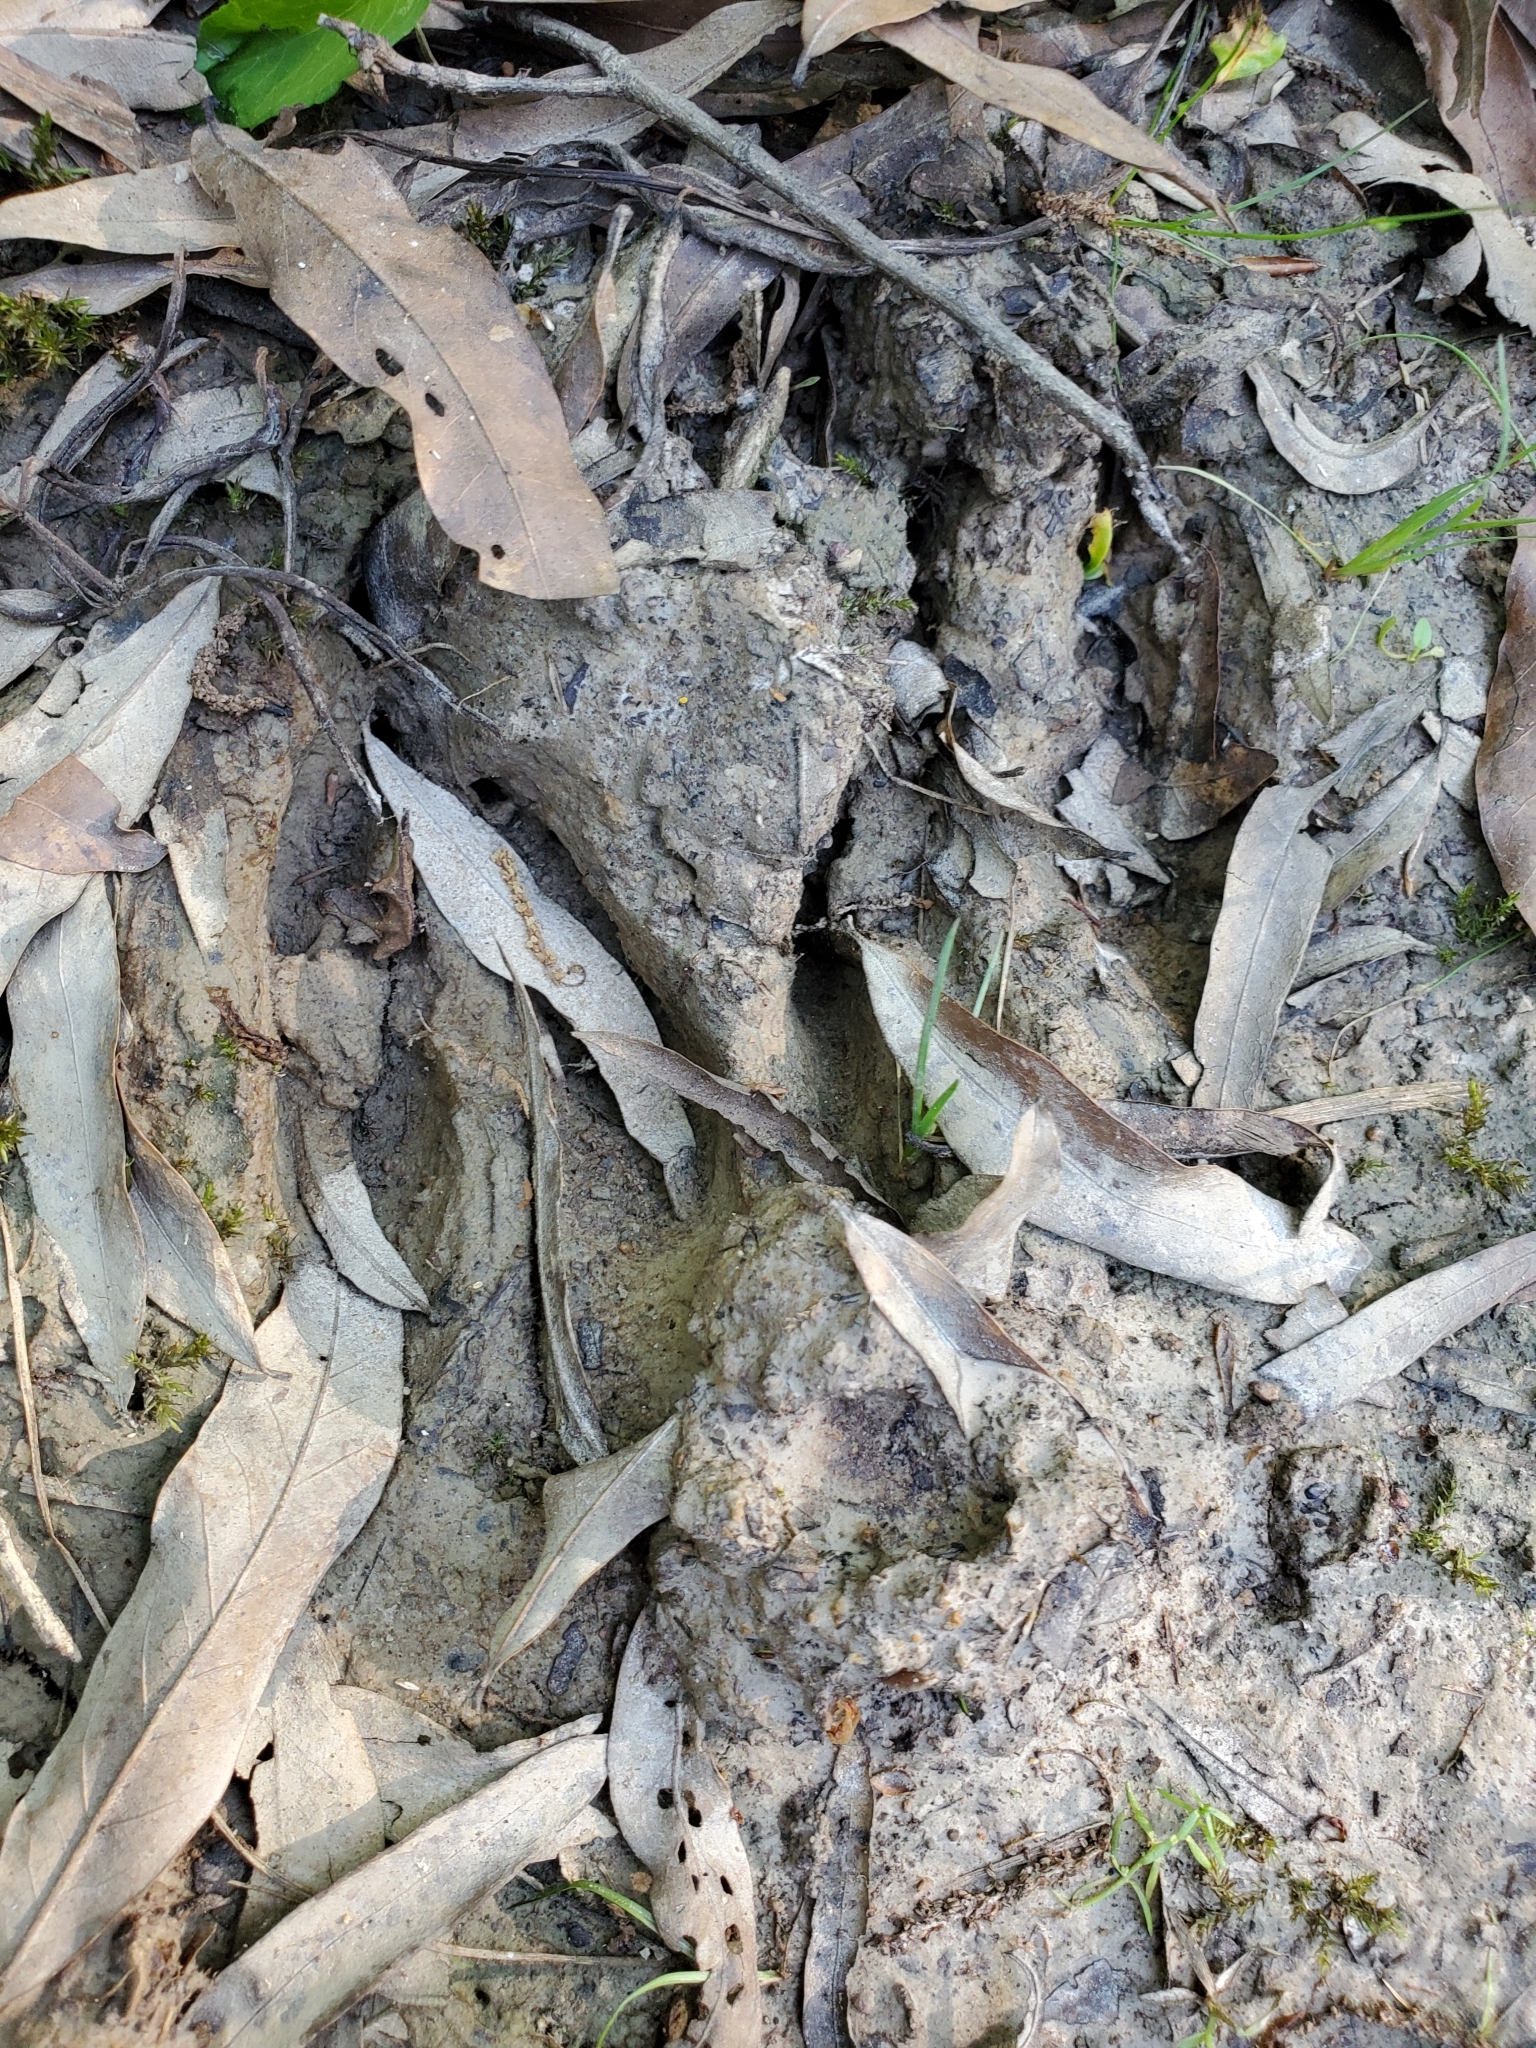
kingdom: Animalia
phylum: Chordata
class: Mammalia
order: Artiodactyla
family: Cervidae
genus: Odocoileus
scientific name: Odocoileus virginianus
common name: White-tailed deer
